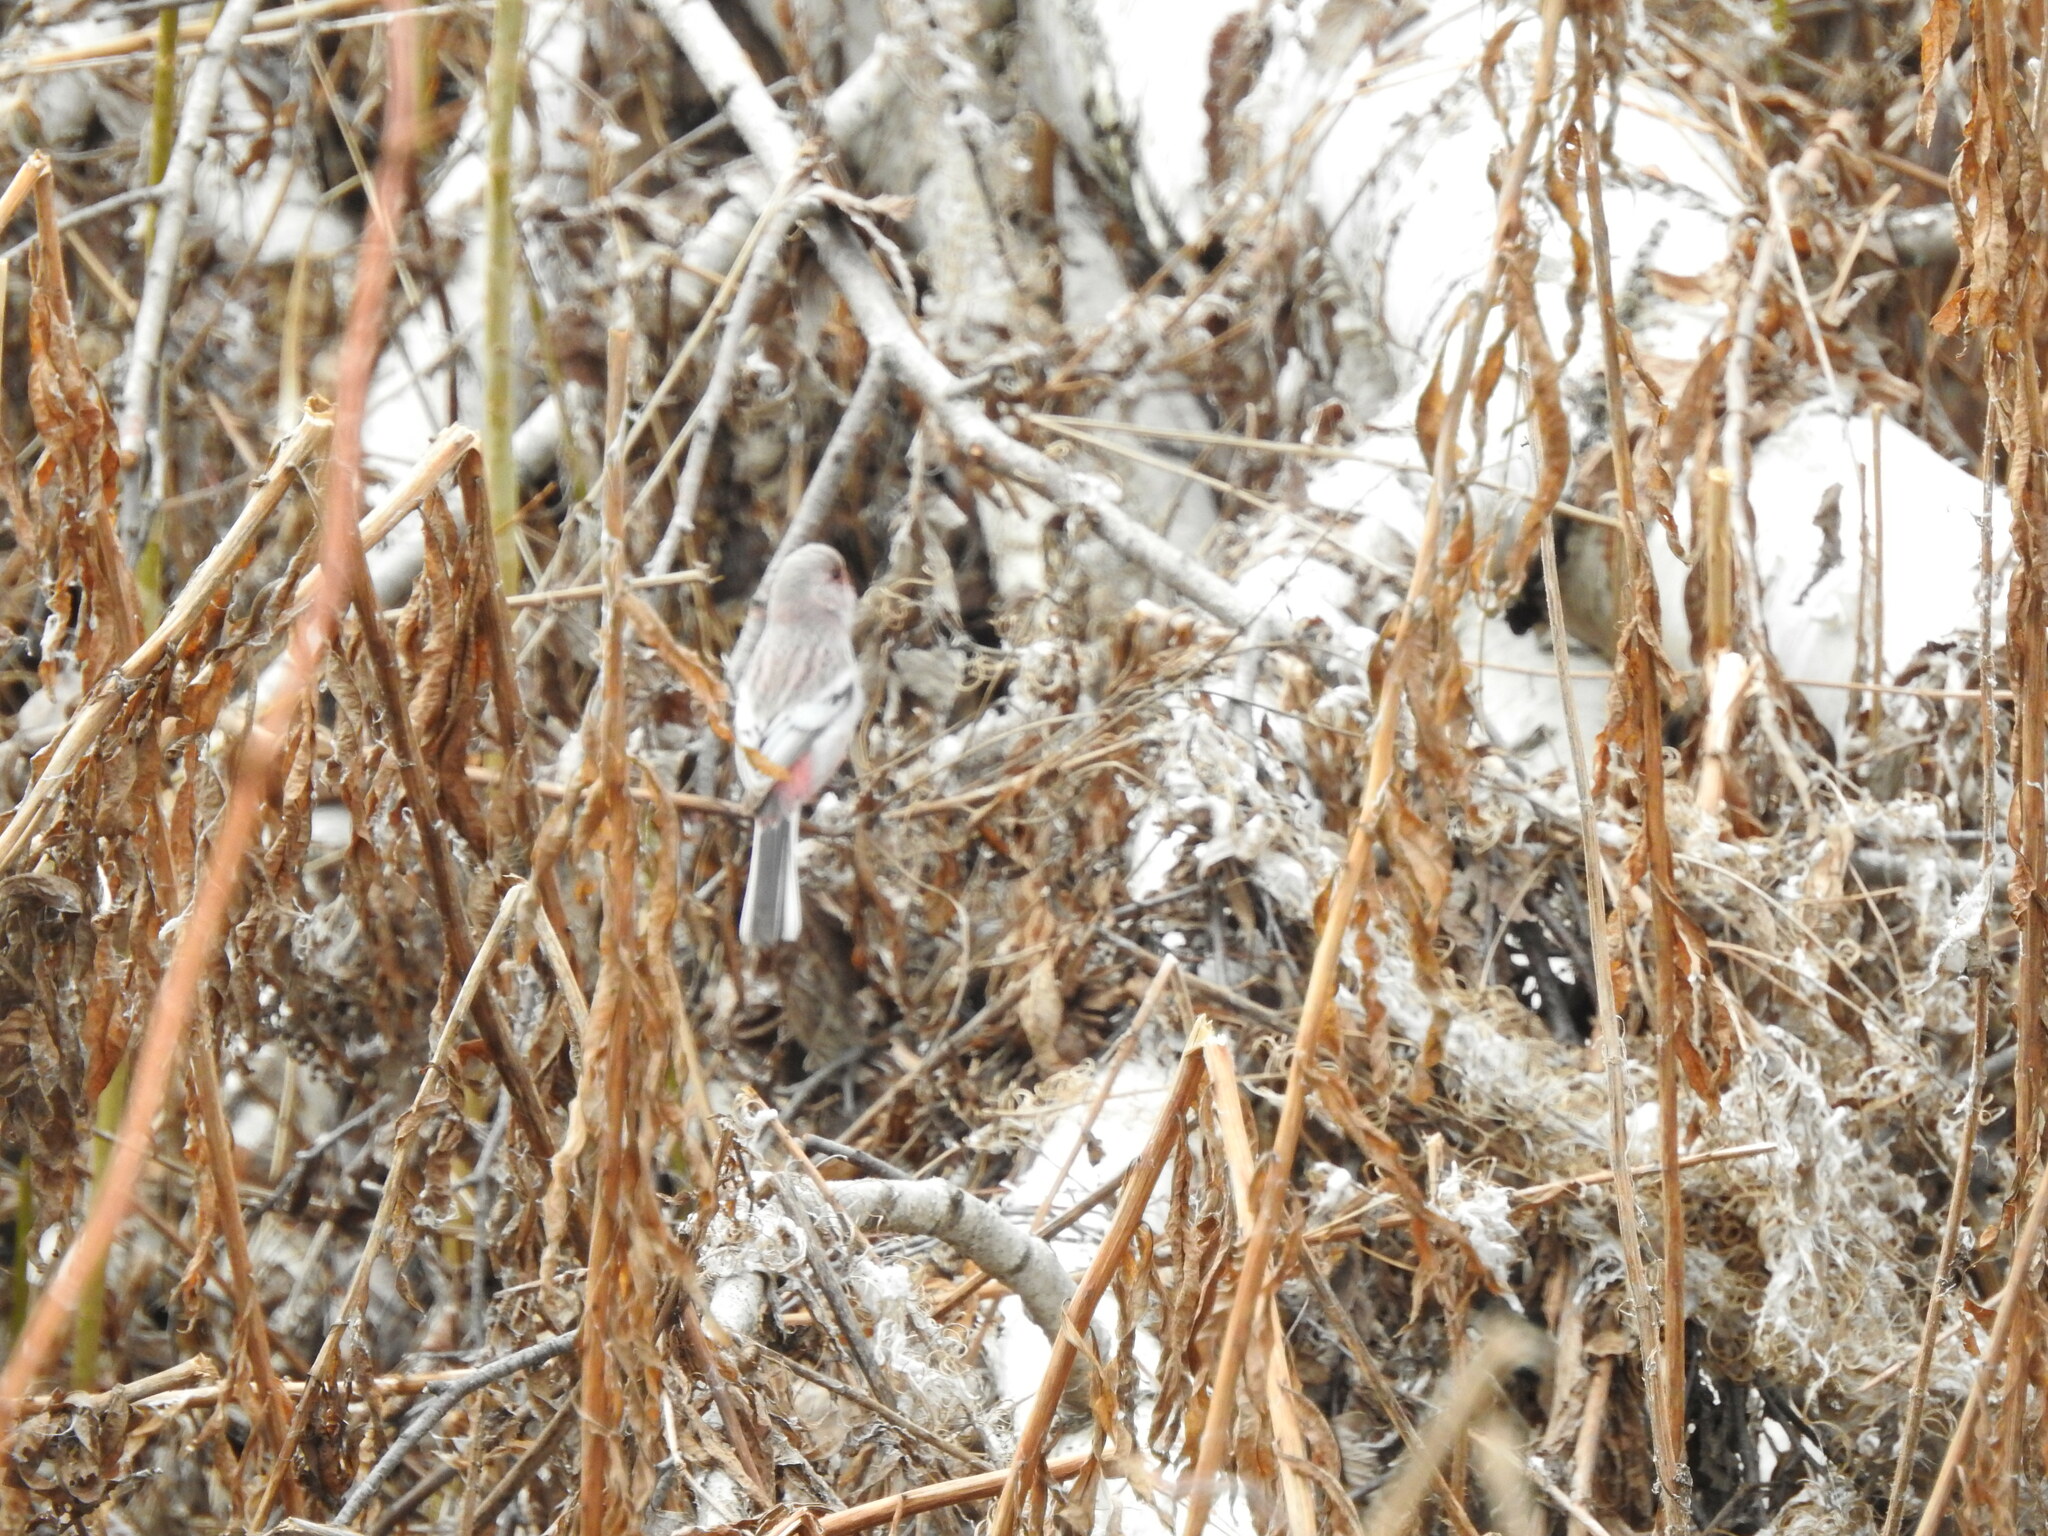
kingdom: Animalia
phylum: Chordata
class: Aves
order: Passeriformes
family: Fringillidae
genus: Carpodacus
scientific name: Carpodacus sibiricus
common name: Long-tailed rosefinch
